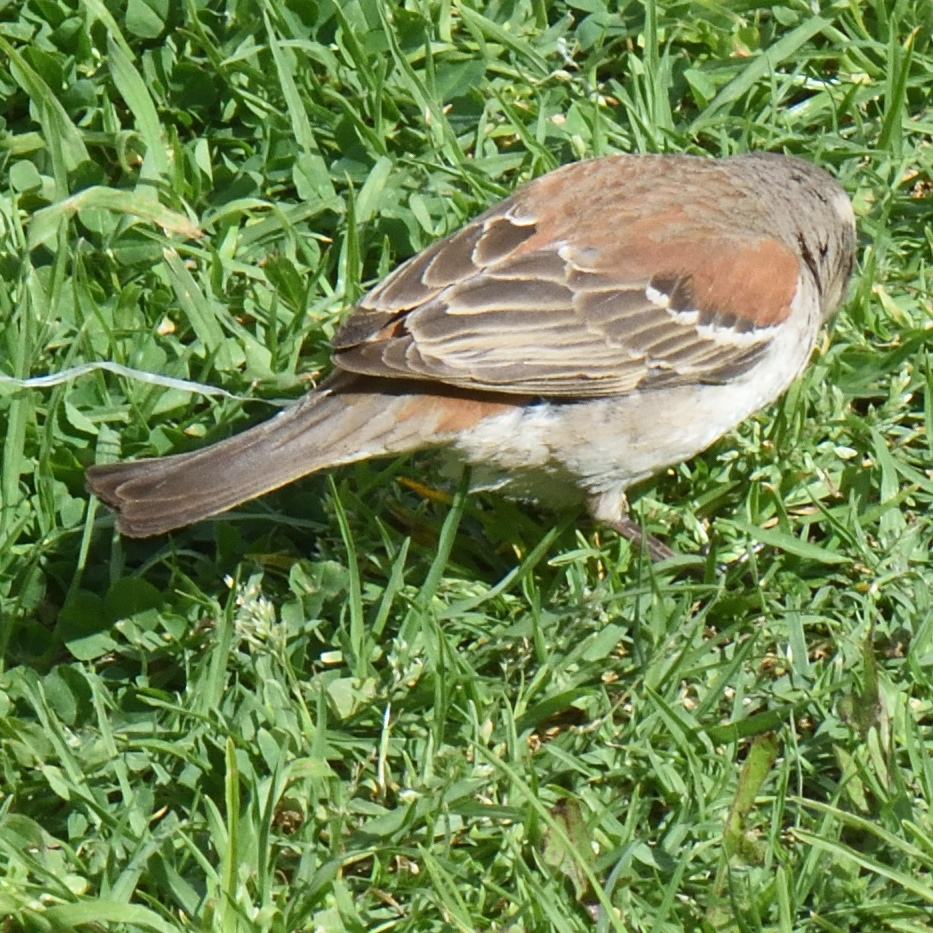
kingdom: Animalia
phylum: Chordata
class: Aves
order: Passeriformes
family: Passeridae
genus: Passer
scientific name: Passer melanurus
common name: Cape sparrow
